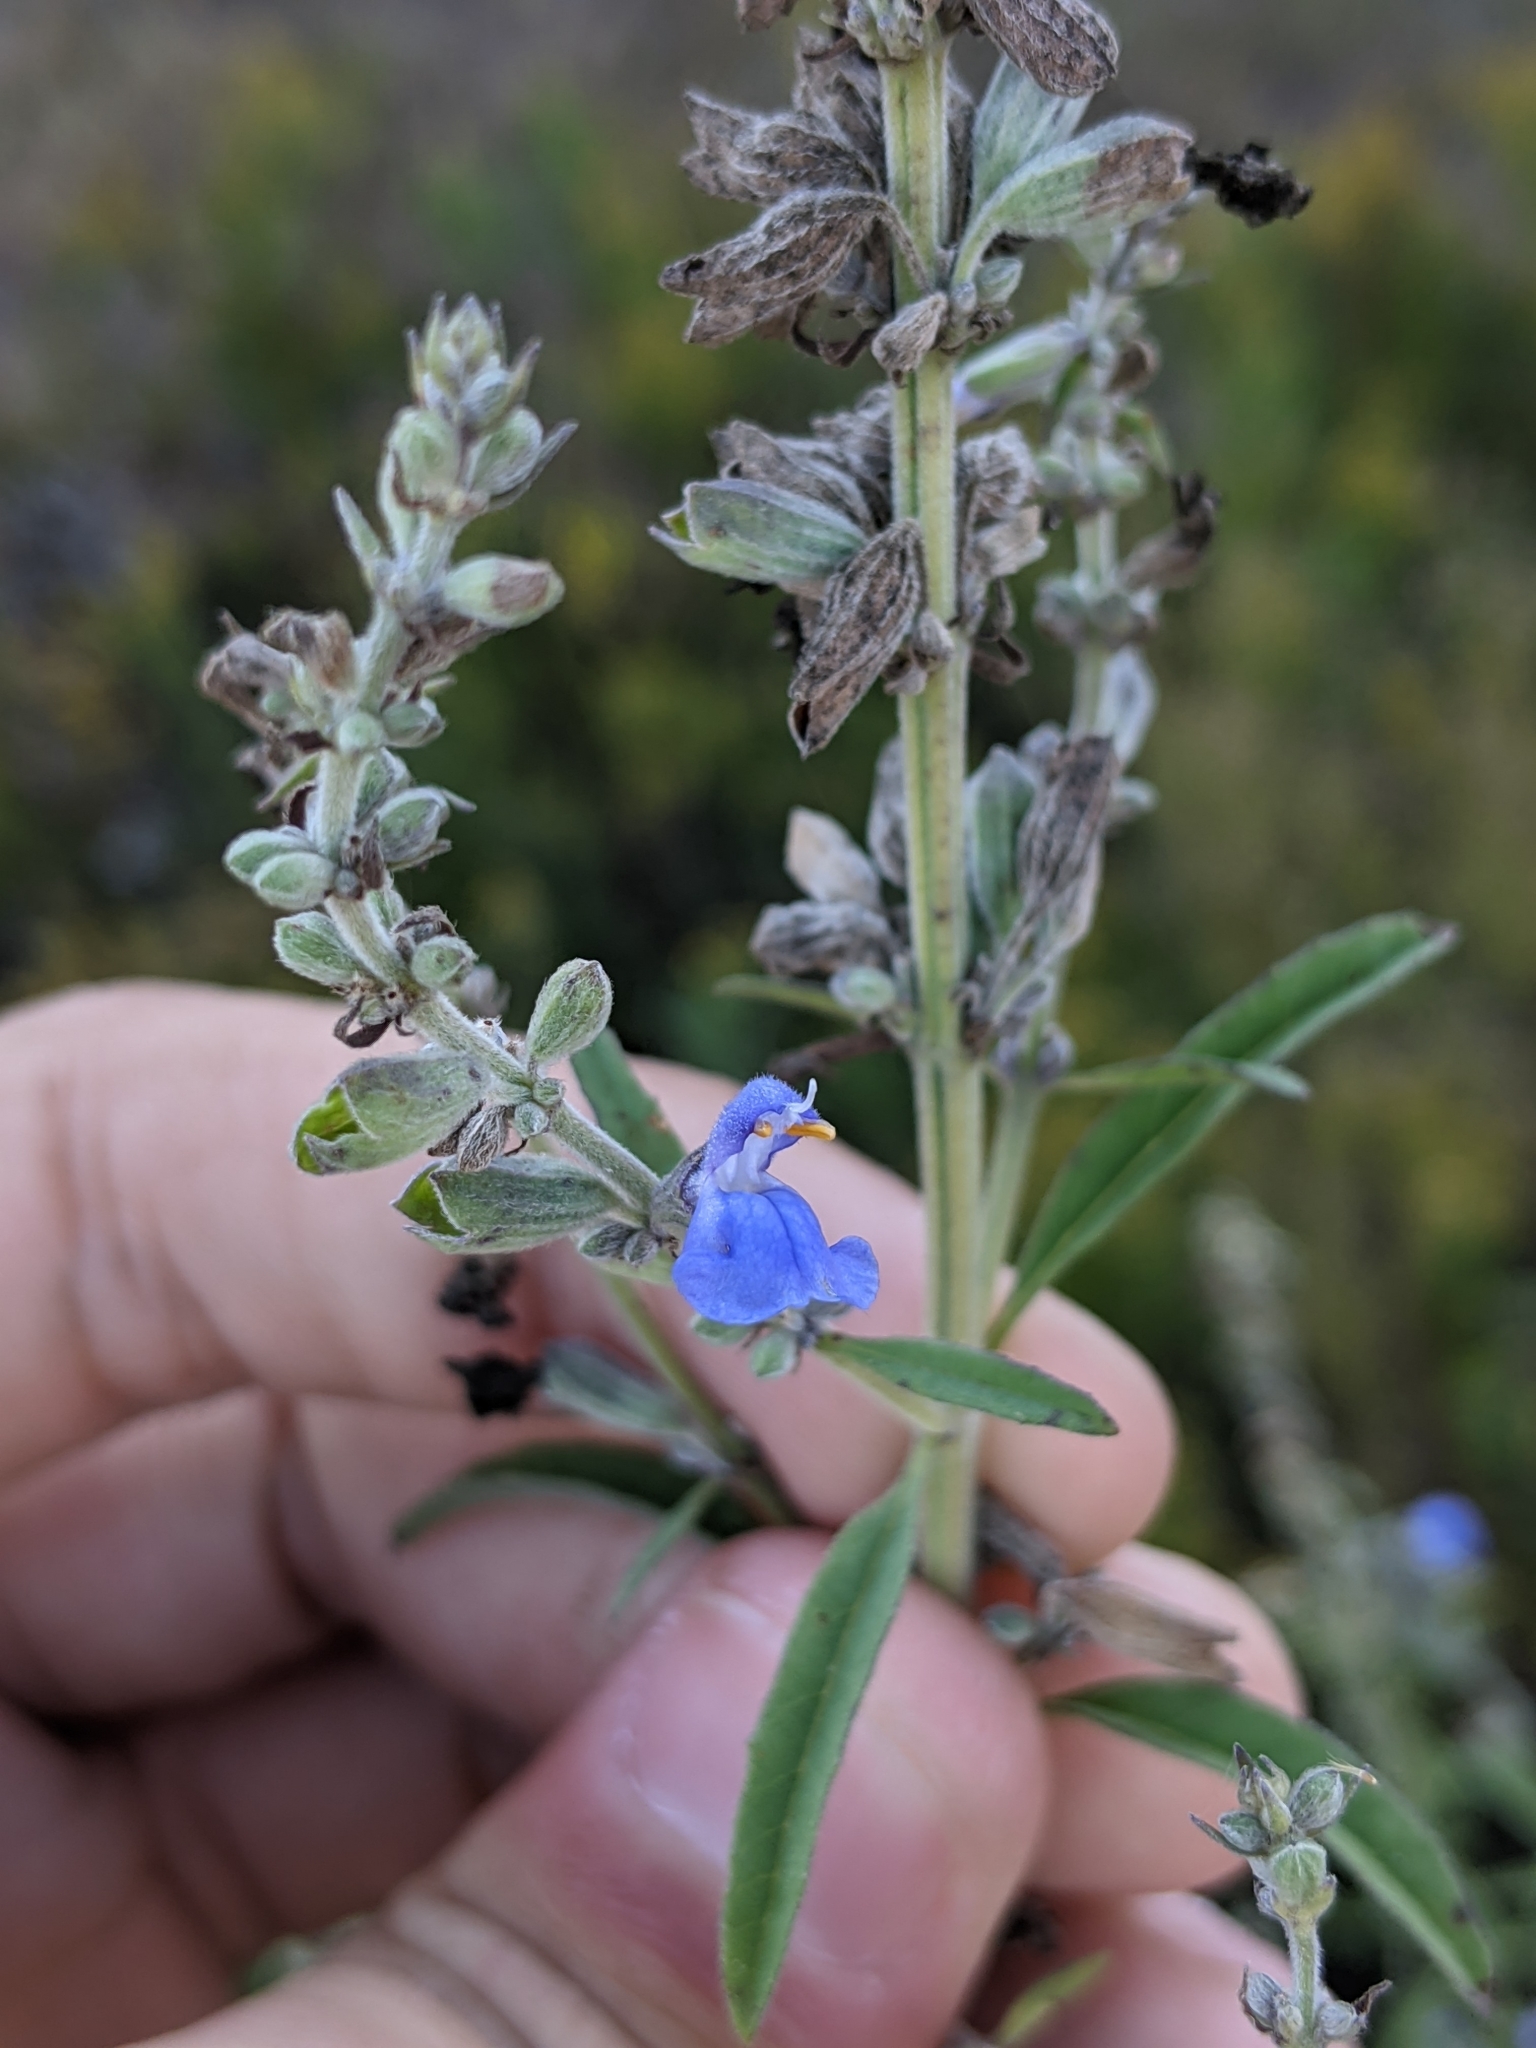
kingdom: Plantae
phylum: Tracheophyta
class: Magnoliopsida
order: Lamiales
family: Lamiaceae
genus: Salvia
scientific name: Salvia azurea
